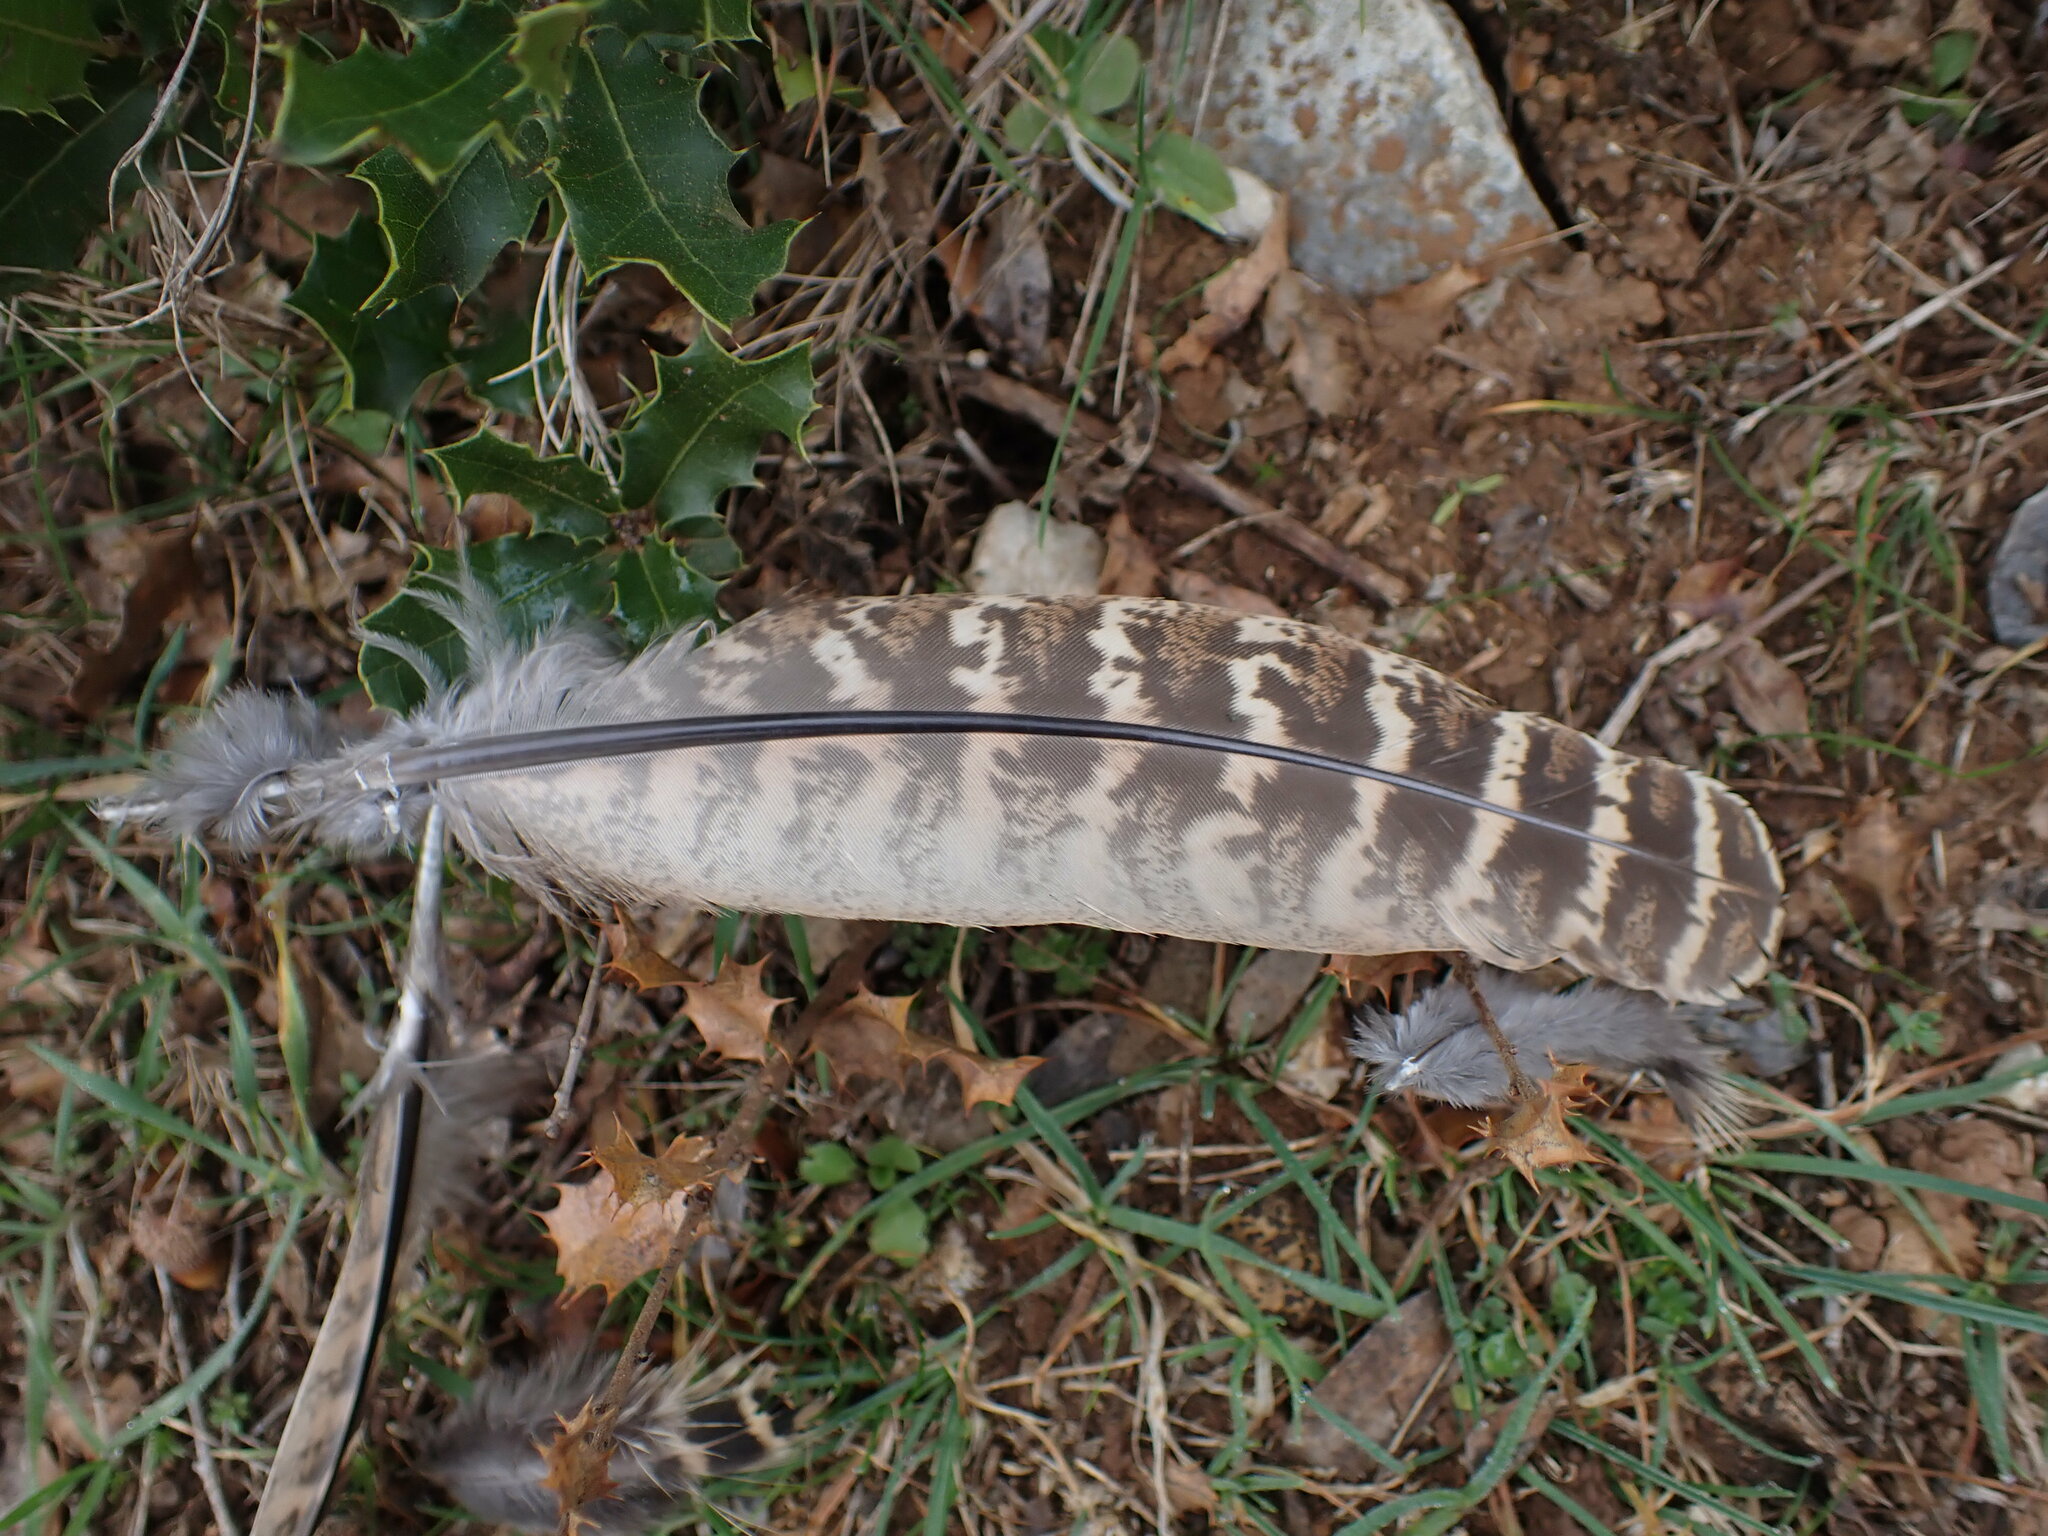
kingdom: Animalia
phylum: Chordata
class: Aves
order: Galliformes
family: Phasianidae
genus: Phasianus
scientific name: Phasianus colchicus
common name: Common pheasant
